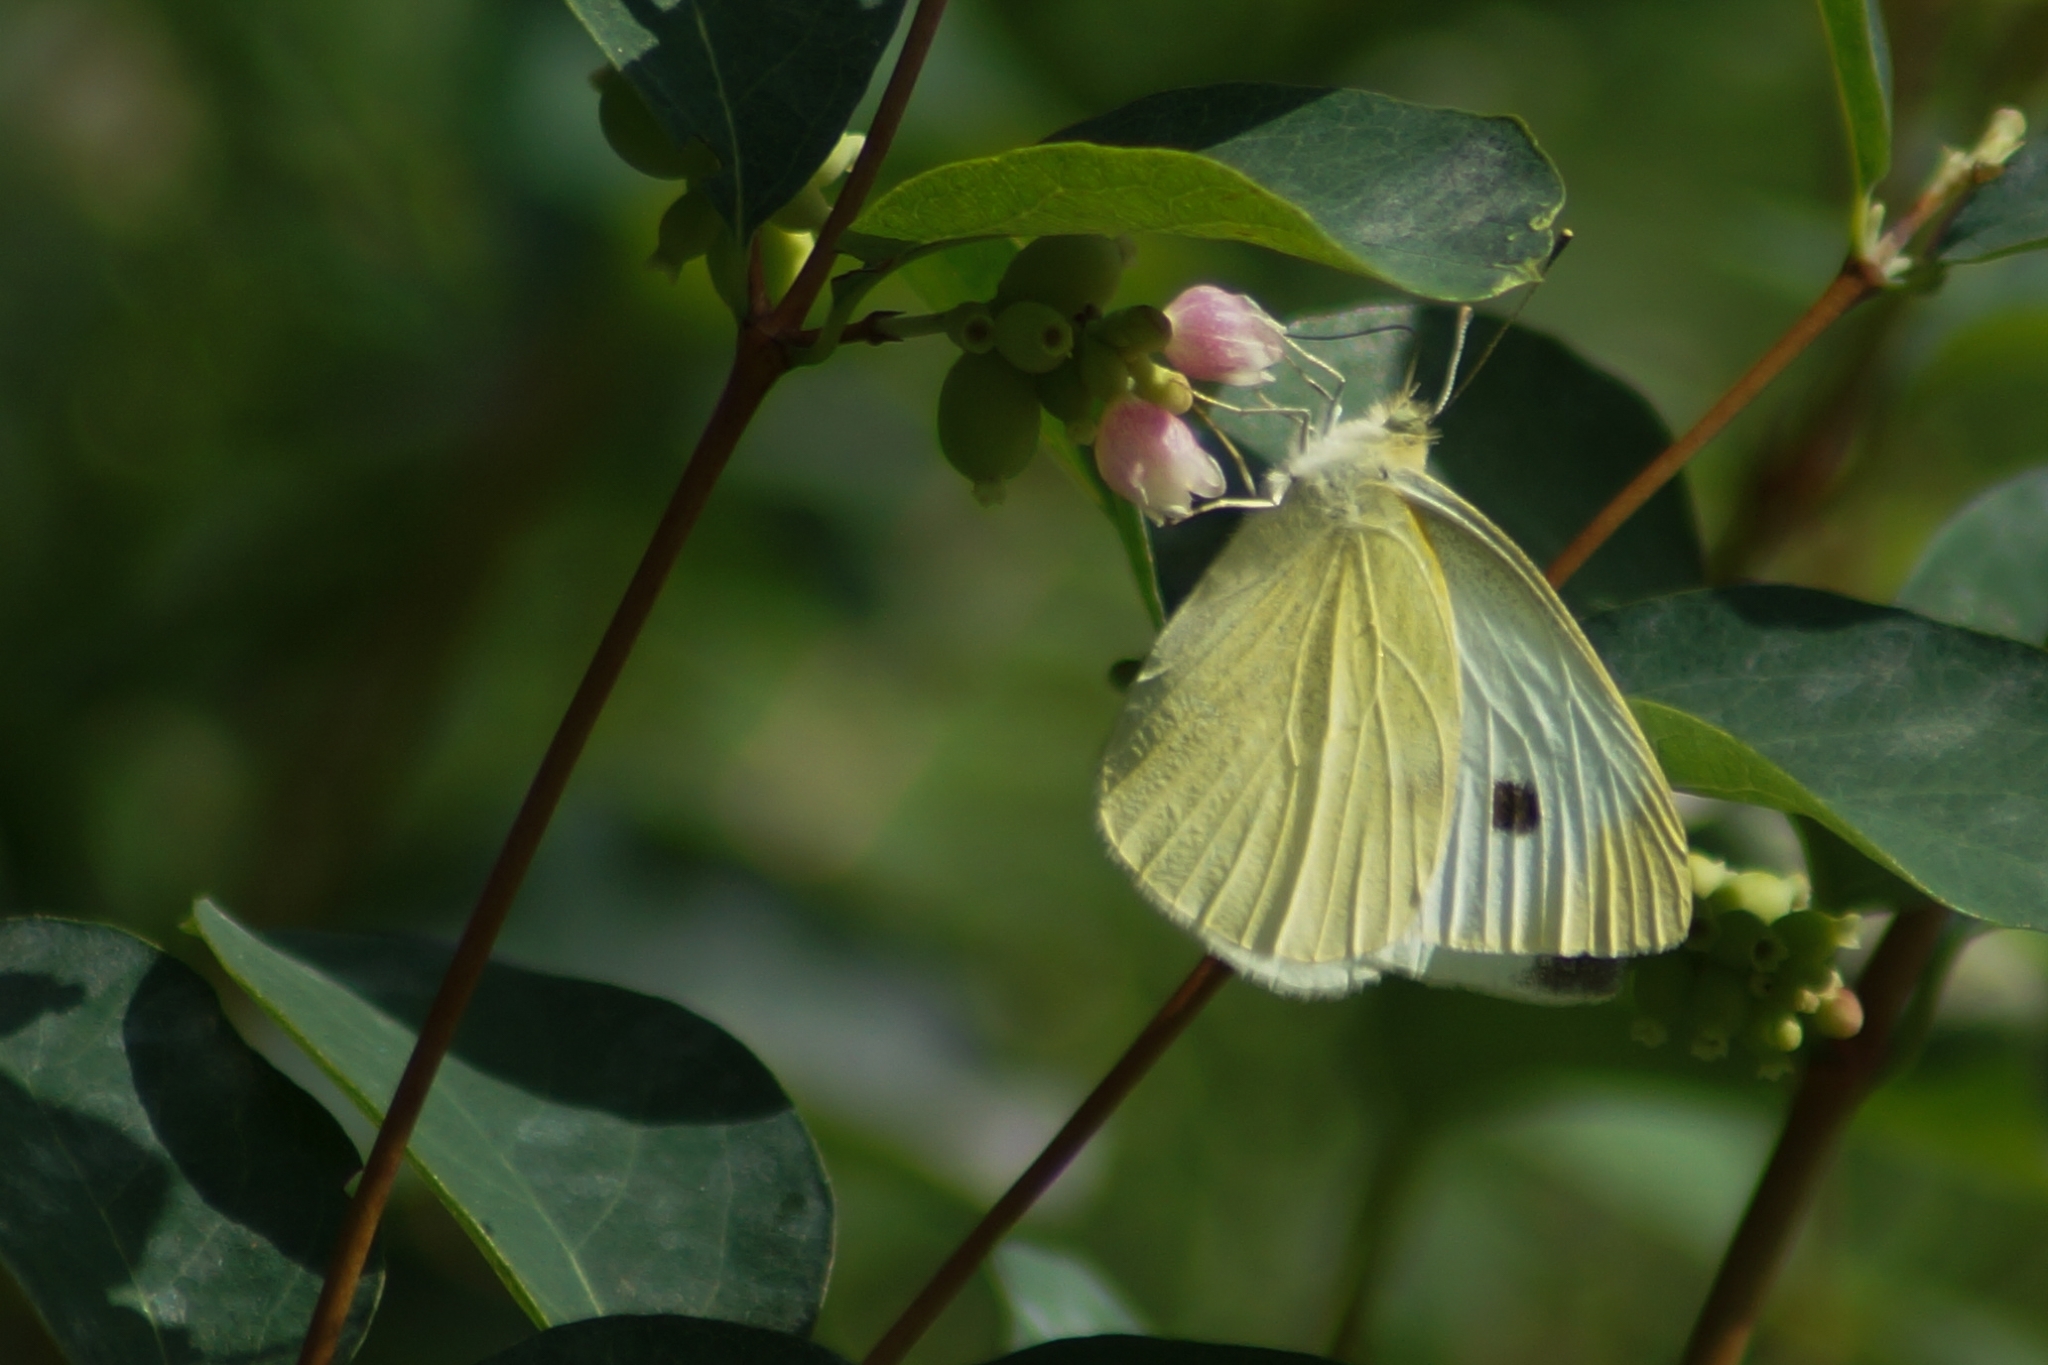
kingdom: Animalia
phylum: Arthropoda
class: Insecta
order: Lepidoptera
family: Pieridae
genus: Pieris
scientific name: Pieris rapae
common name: Small white
